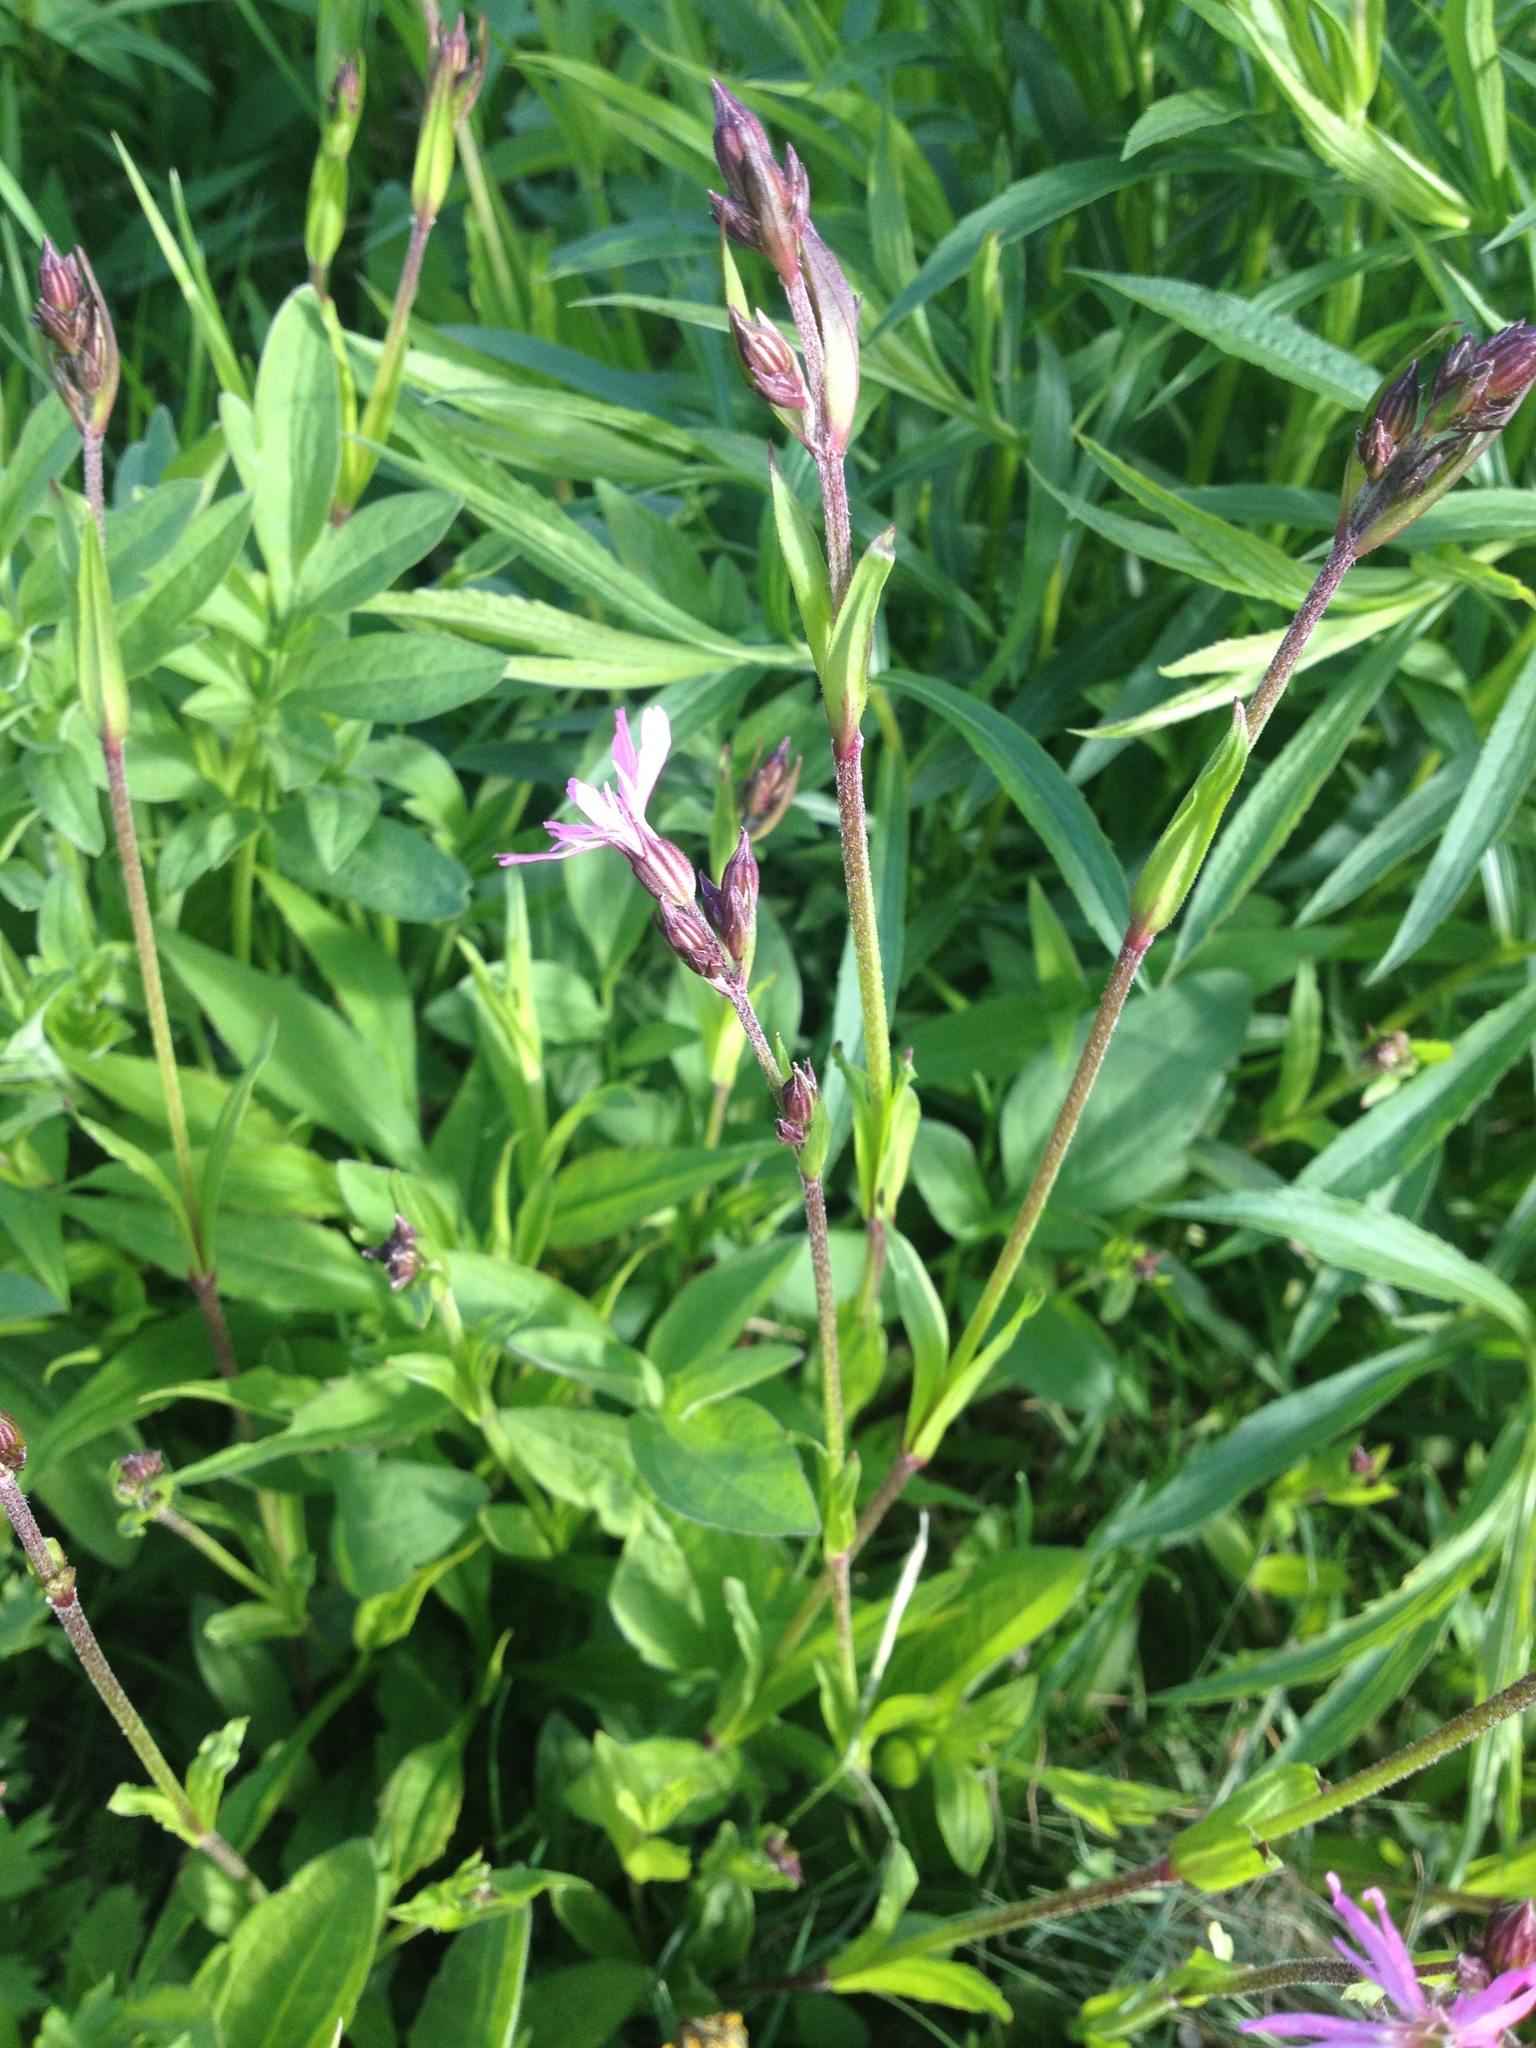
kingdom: Plantae
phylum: Tracheophyta
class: Magnoliopsida
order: Caryophyllales
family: Caryophyllaceae
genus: Silene
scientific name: Silene flos-cuculi
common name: Ragged-robin
